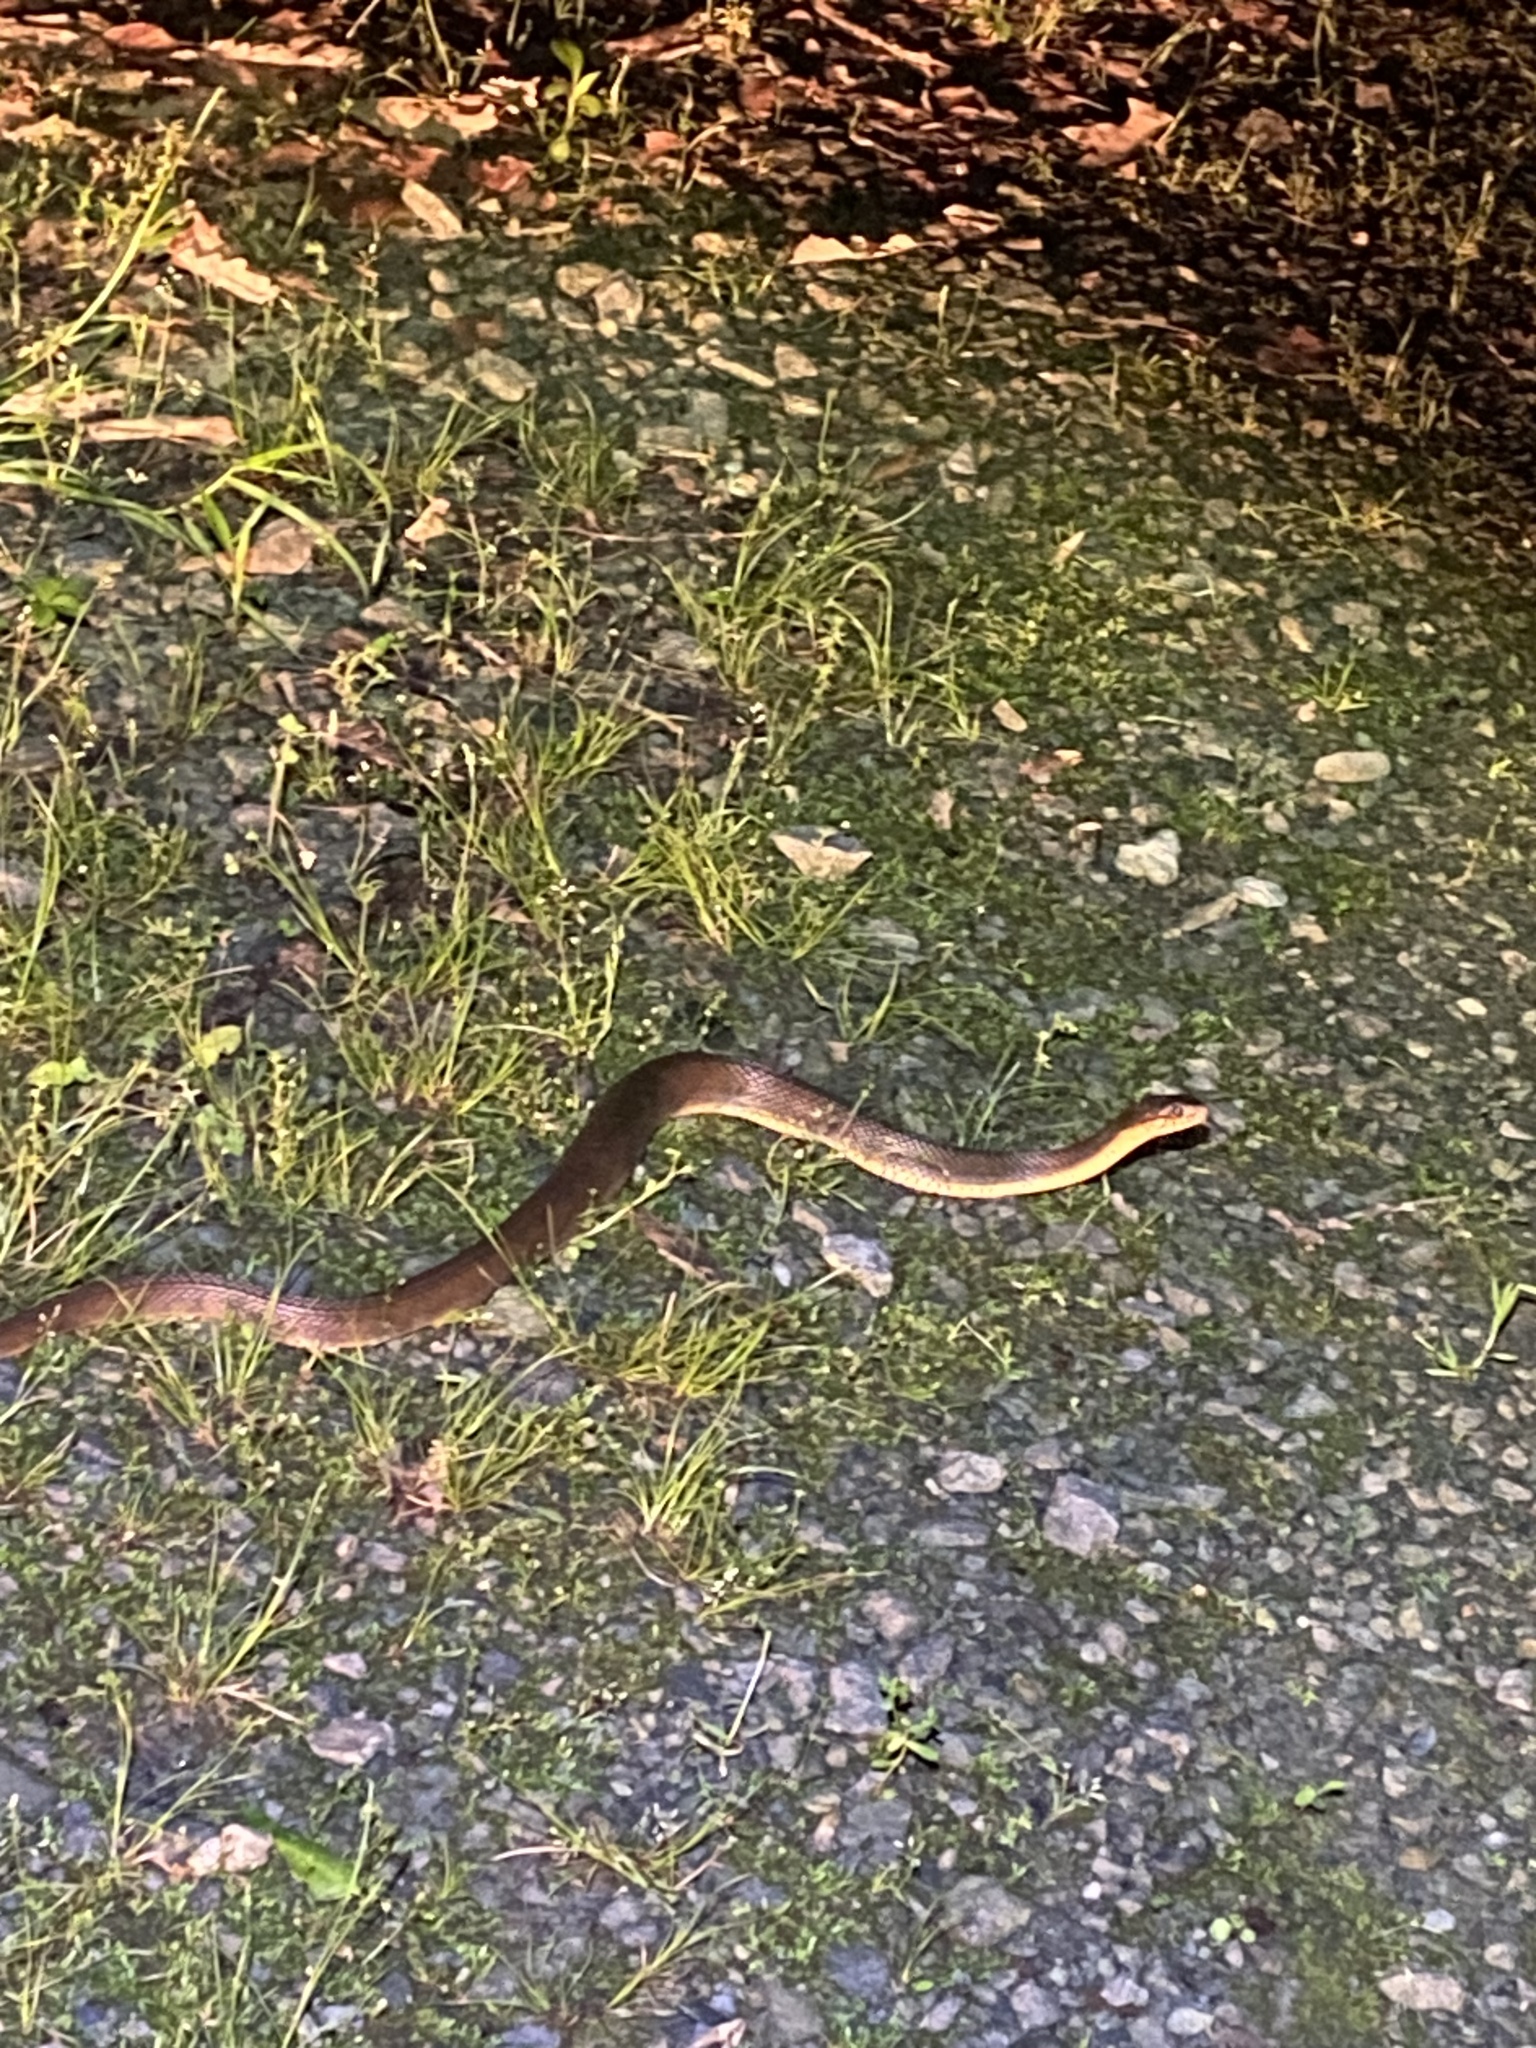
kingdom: Animalia
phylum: Chordata
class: Squamata
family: Colubridae
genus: Nerodia
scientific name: Nerodia erythrogaster
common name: Plainbelly water snake
